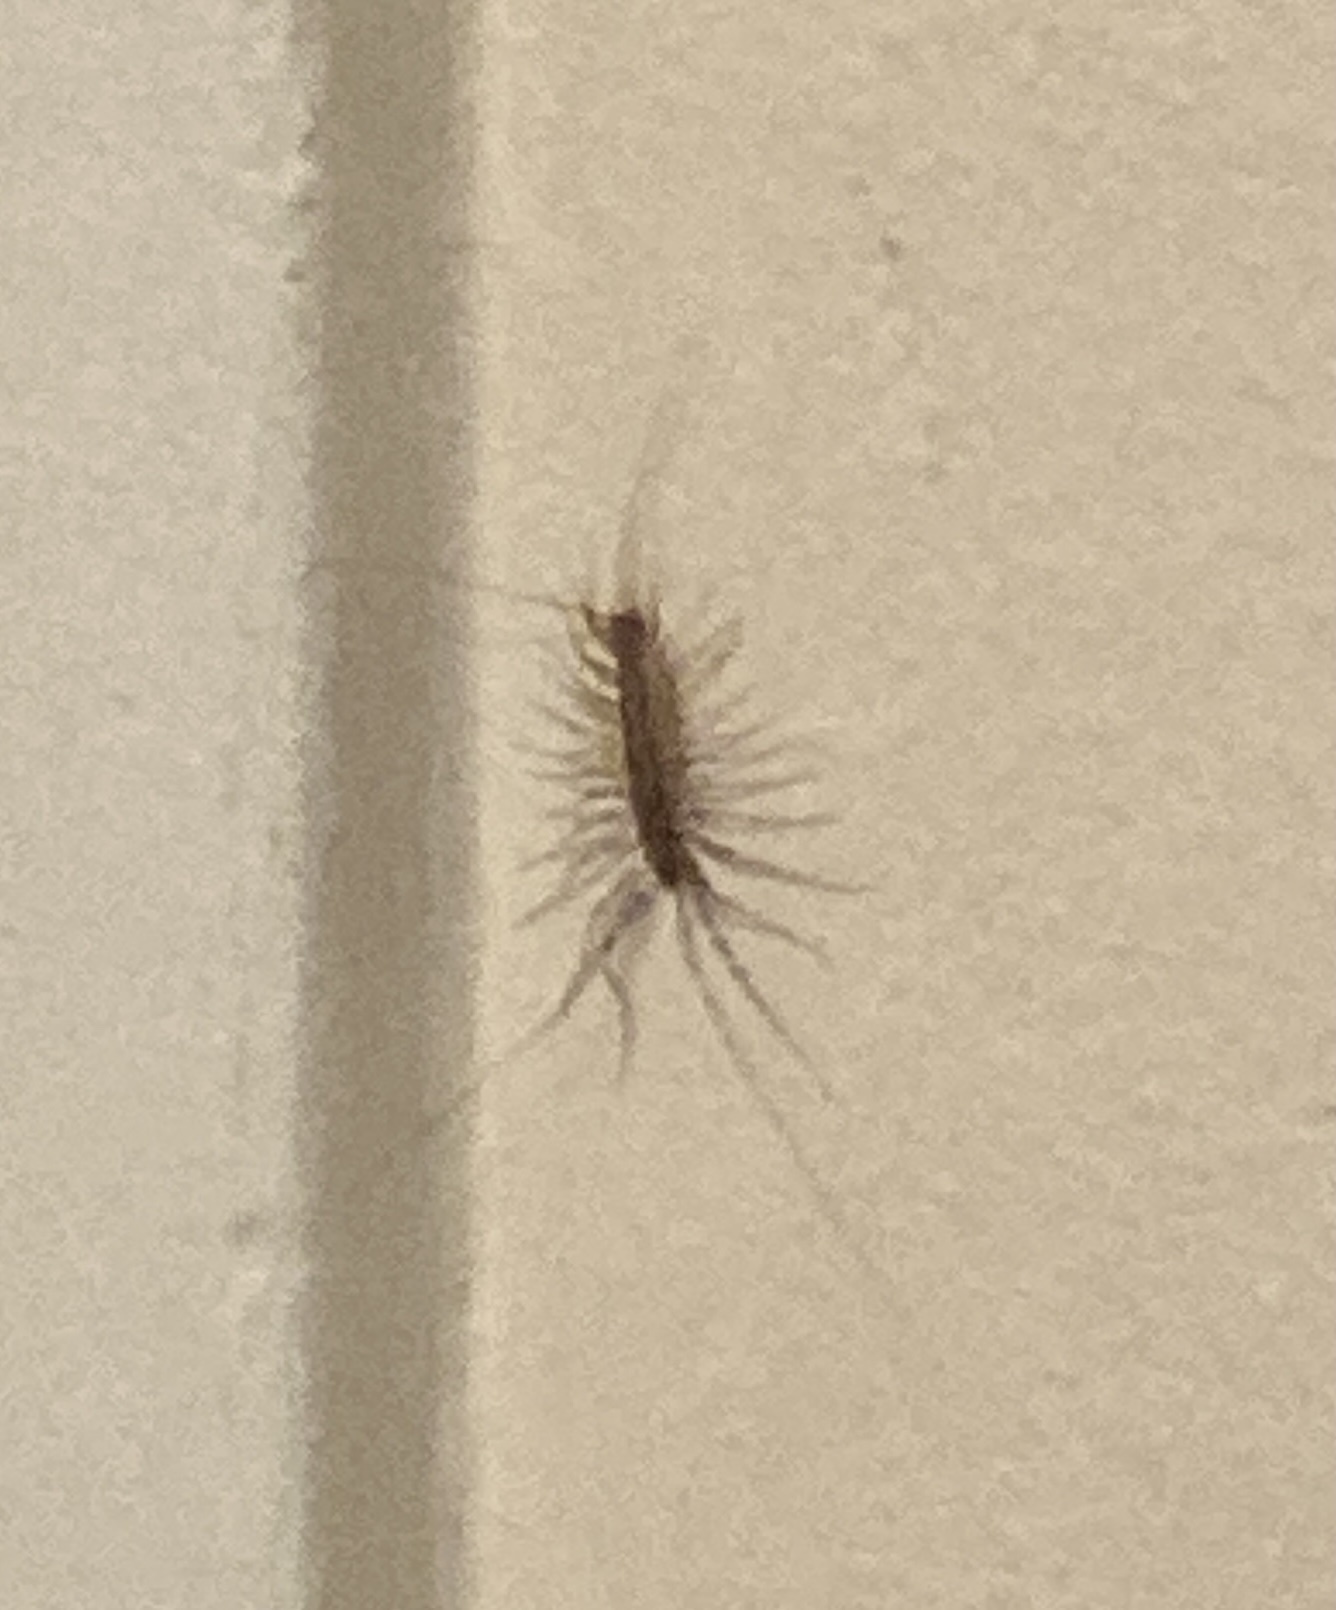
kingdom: Animalia
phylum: Arthropoda
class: Chilopoda
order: Scutigeromorpha
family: Scutigeridae
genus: Scutigera
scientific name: Scutigera coleoptrata
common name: House centipede
